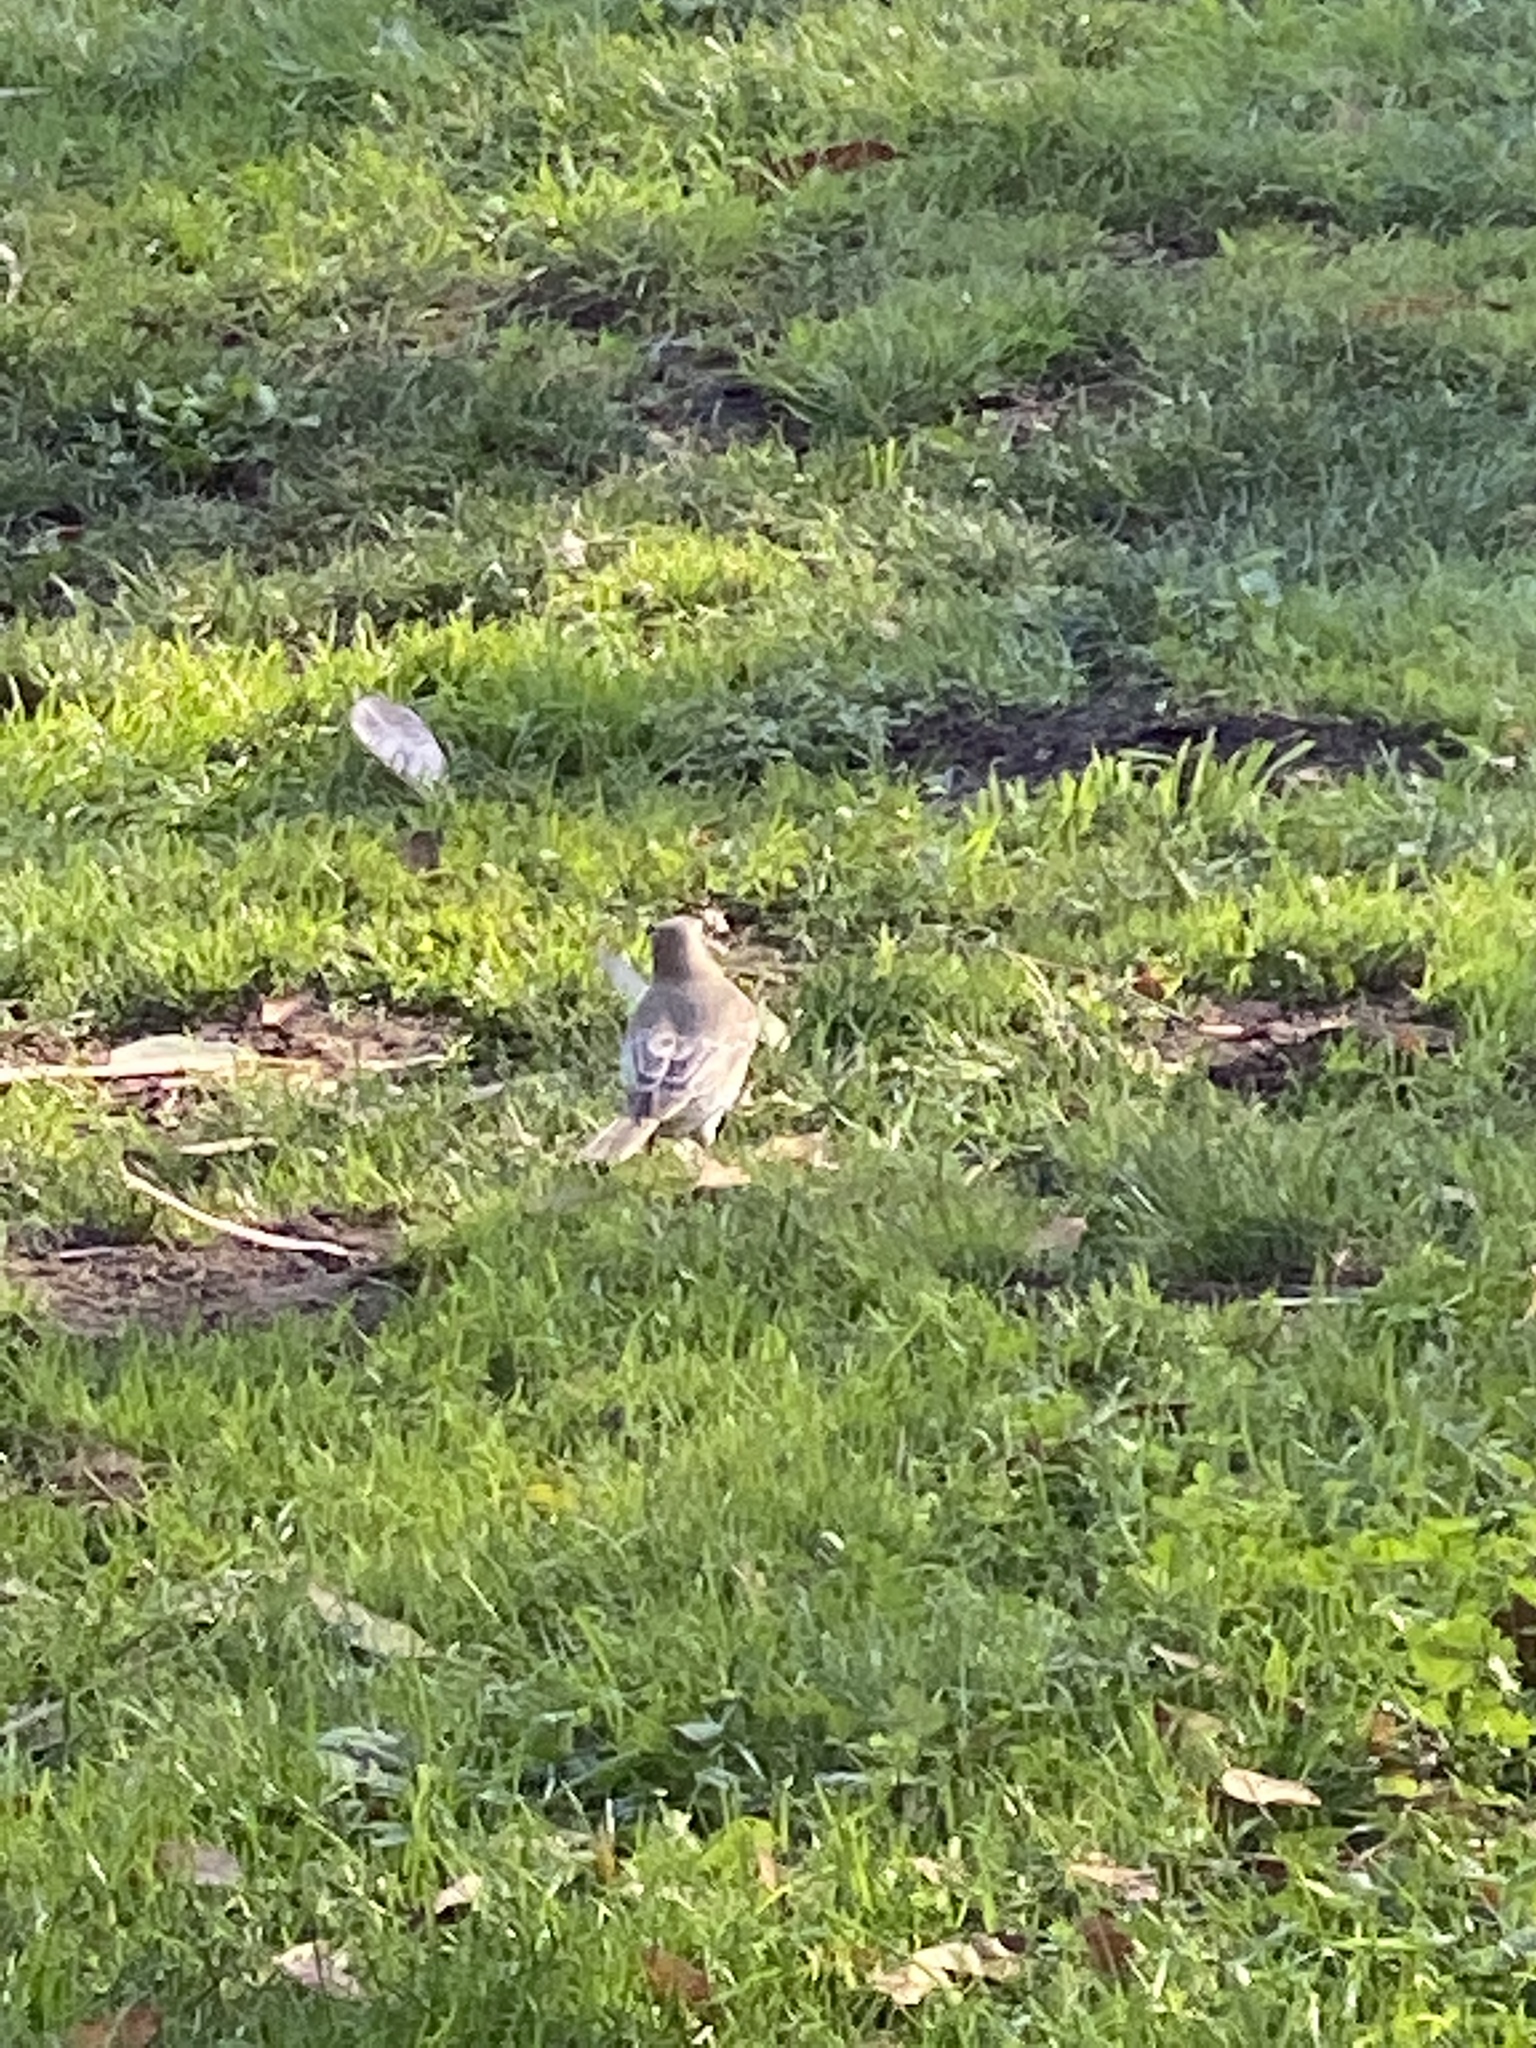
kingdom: Animalia
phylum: Chordata
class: Aves
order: Passeriformes
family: Turdidae
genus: Turdus
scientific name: Turdus migratorius
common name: American robin
